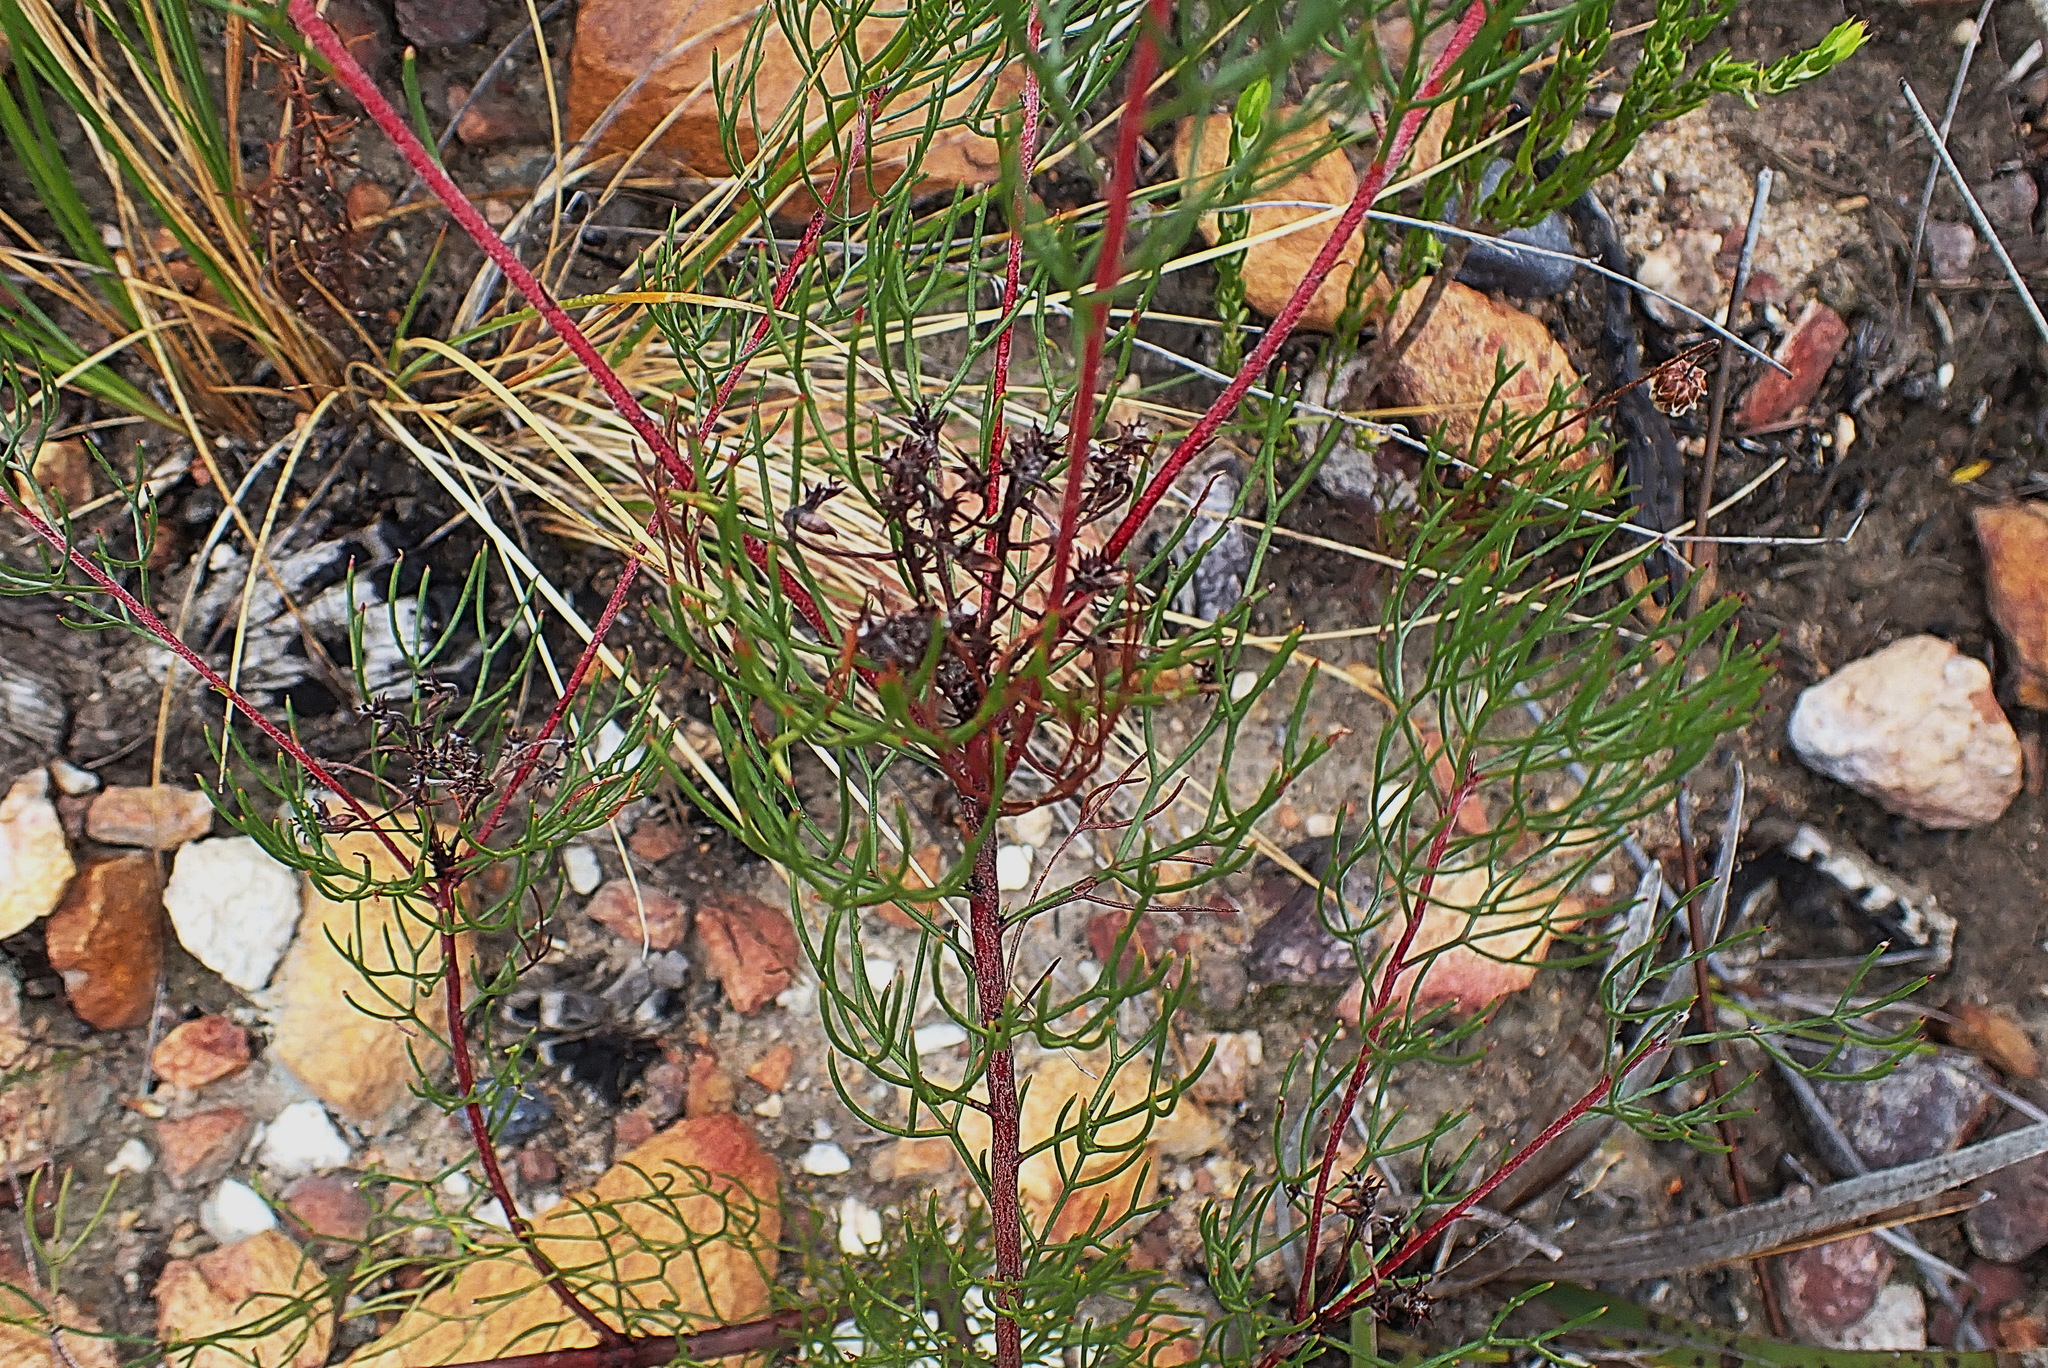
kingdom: Plantae
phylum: Tracheophyta
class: Magnoliopsida
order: Proteales
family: Proteaceae
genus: Serruria
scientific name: Serruria fasciflora
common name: Common pin spiderhead
